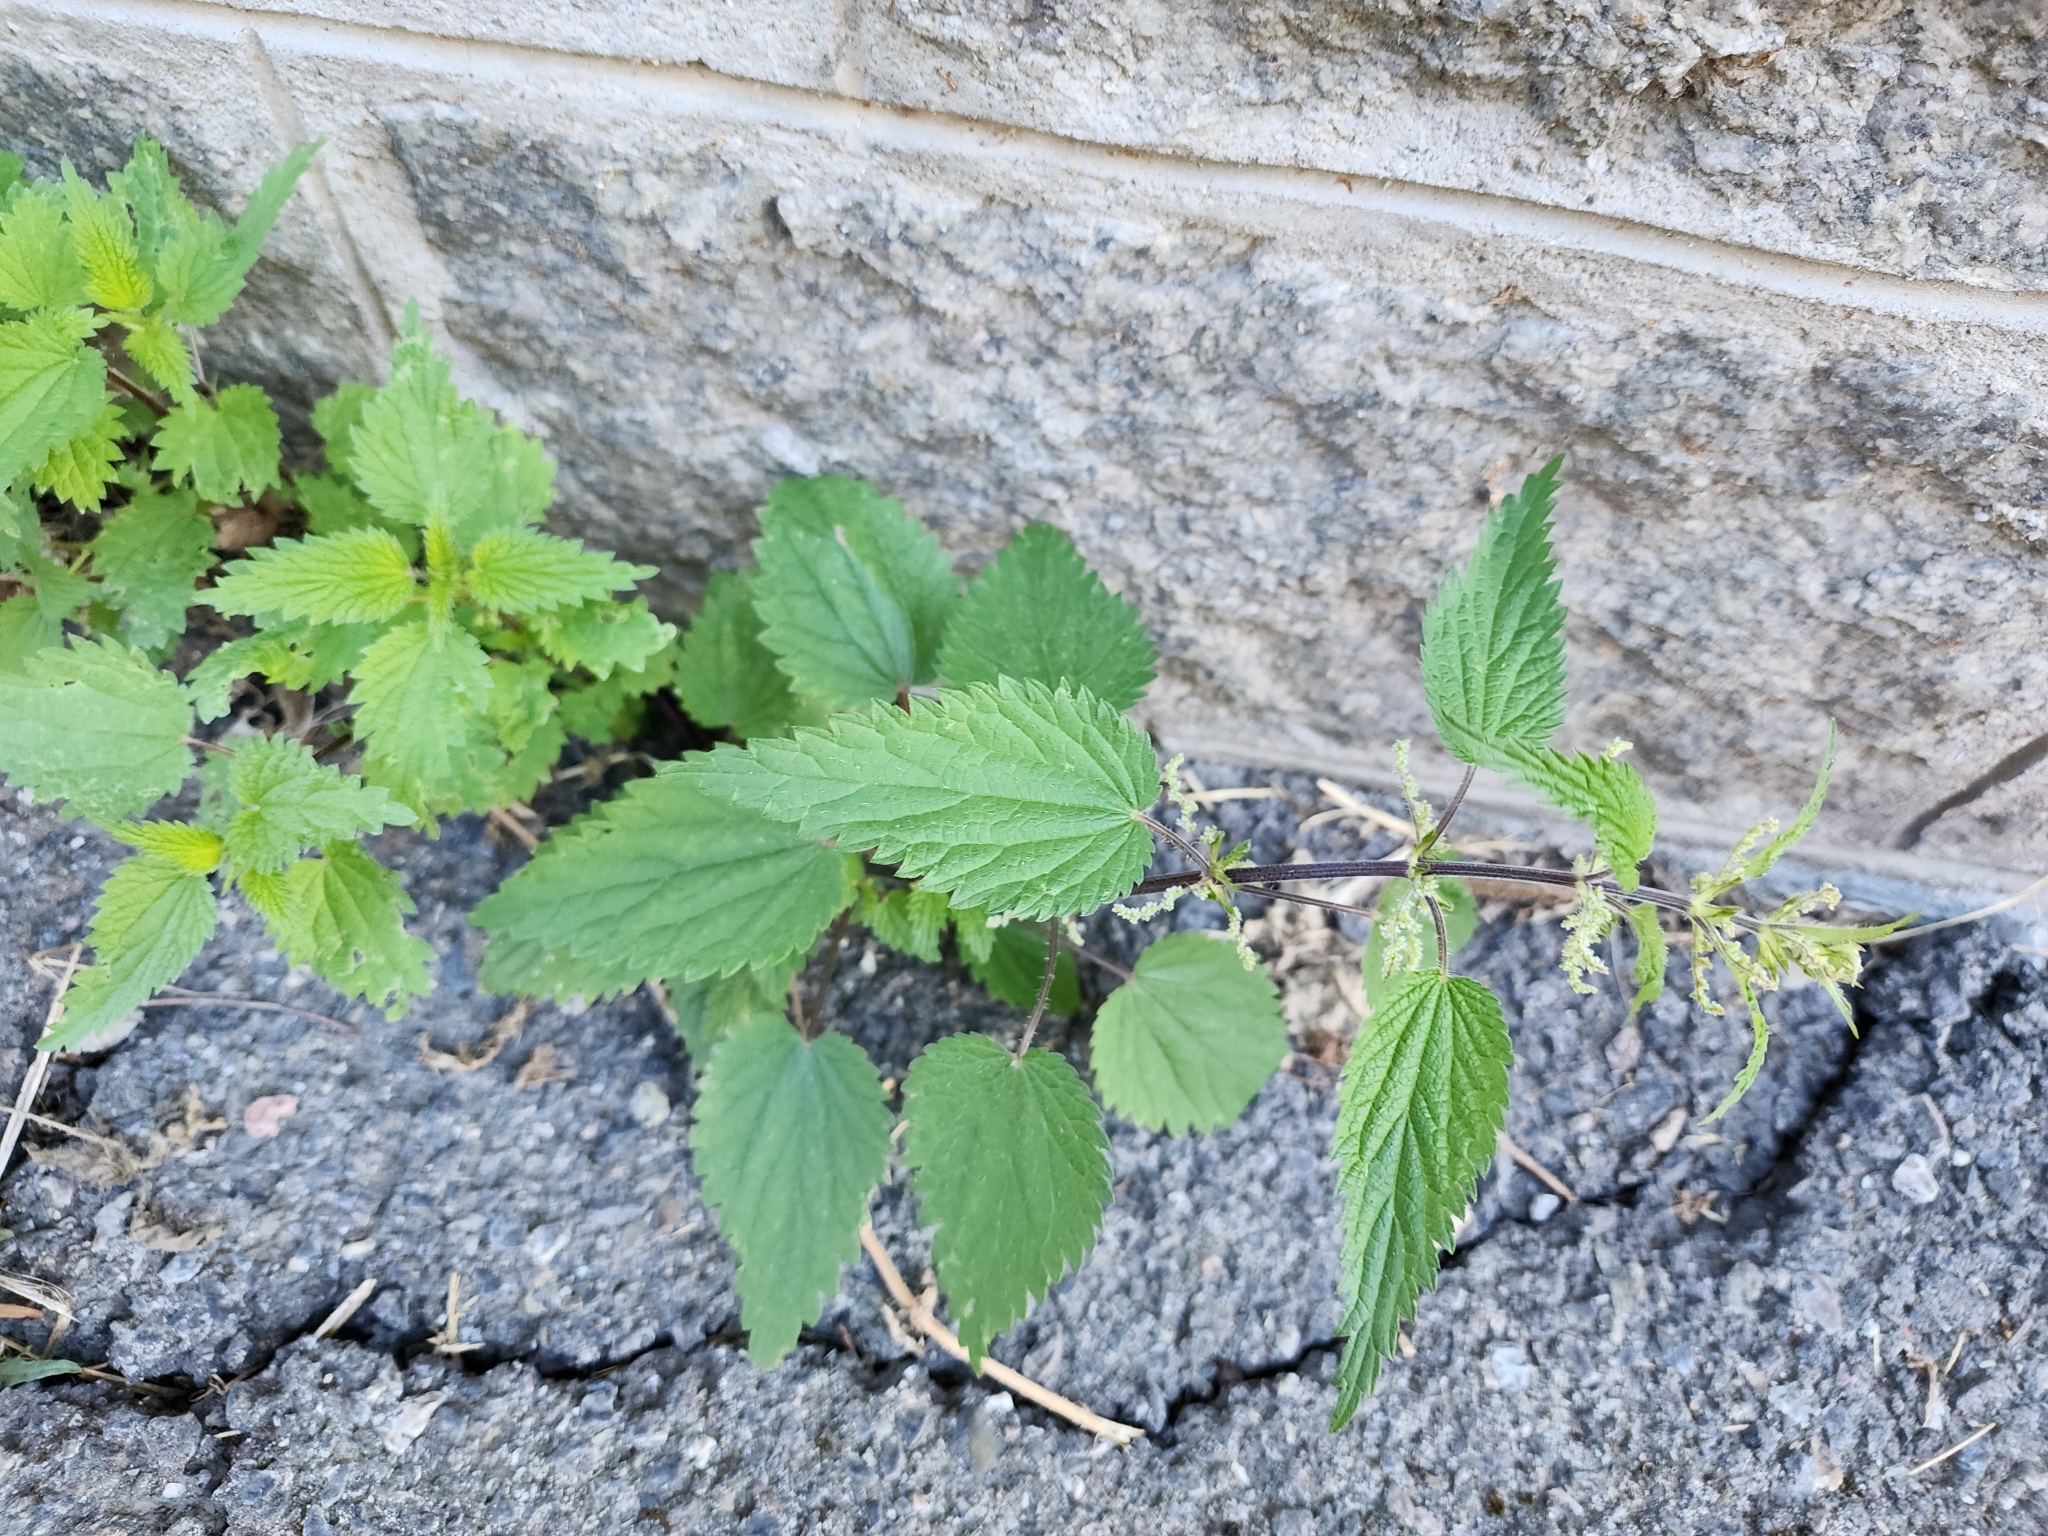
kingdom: Plantae
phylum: Tracheophyta
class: Magnoliopsida
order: Rosales
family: Urticaceae
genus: Urtica
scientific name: Urtica dioica
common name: Common nettle
